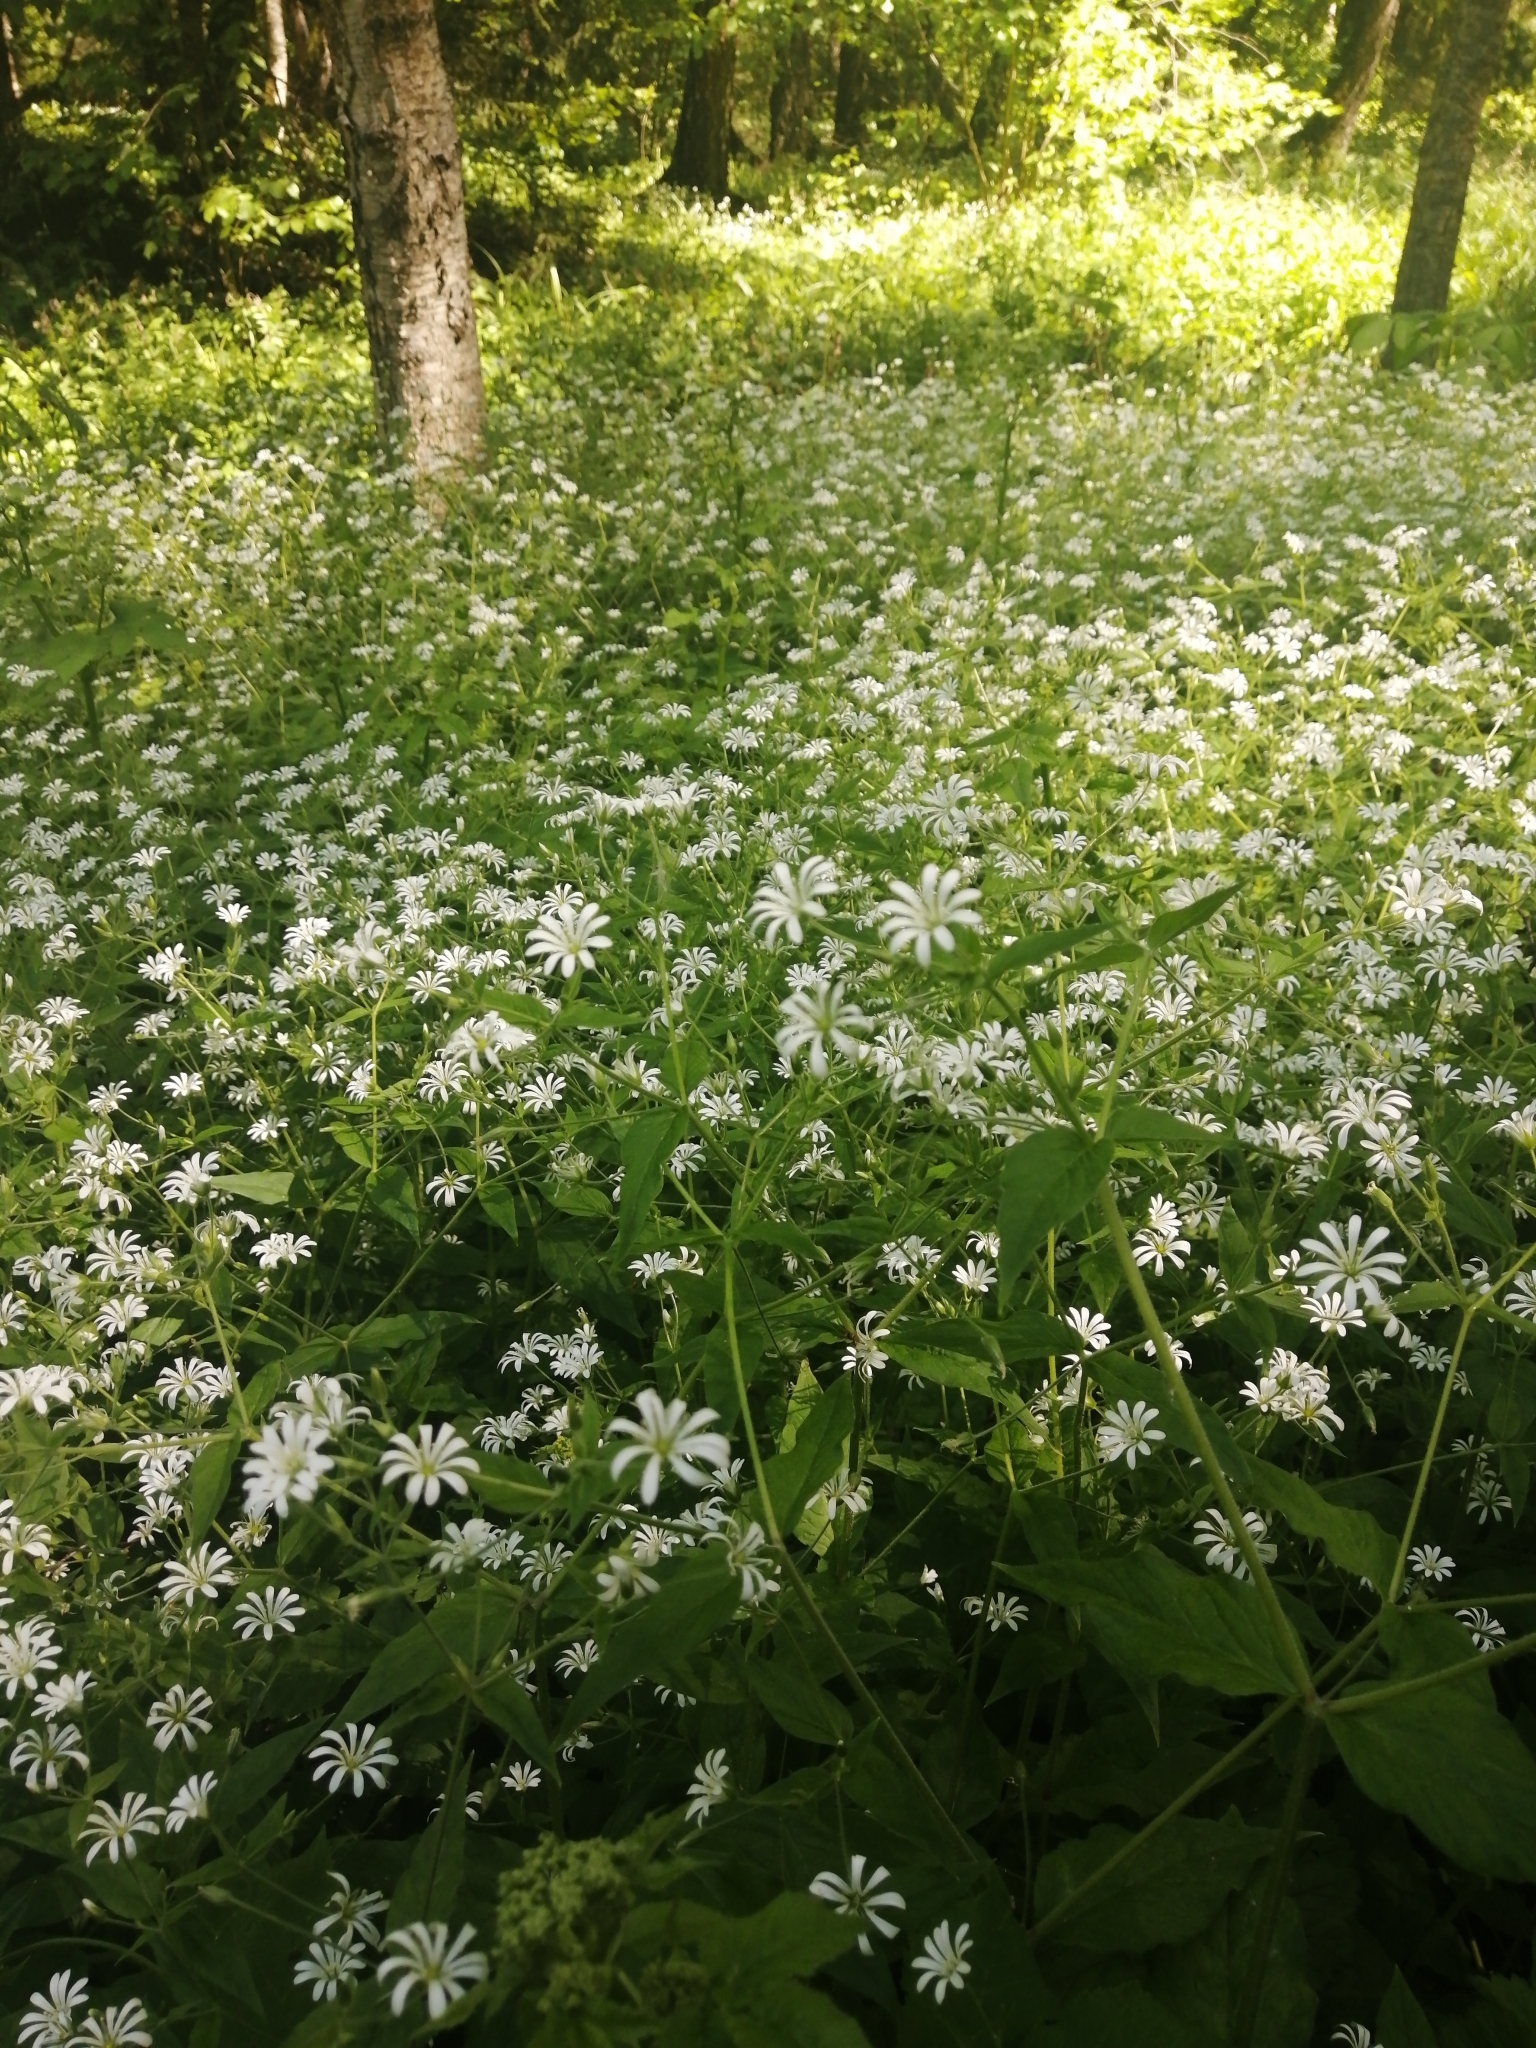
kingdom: Plantae
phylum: Tracheophyta
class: Magnoliopsida
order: Caryophyllales
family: Caryophyllaceae
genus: Stellaria
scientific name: Stellaria nemorum
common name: Wood stitchwort
